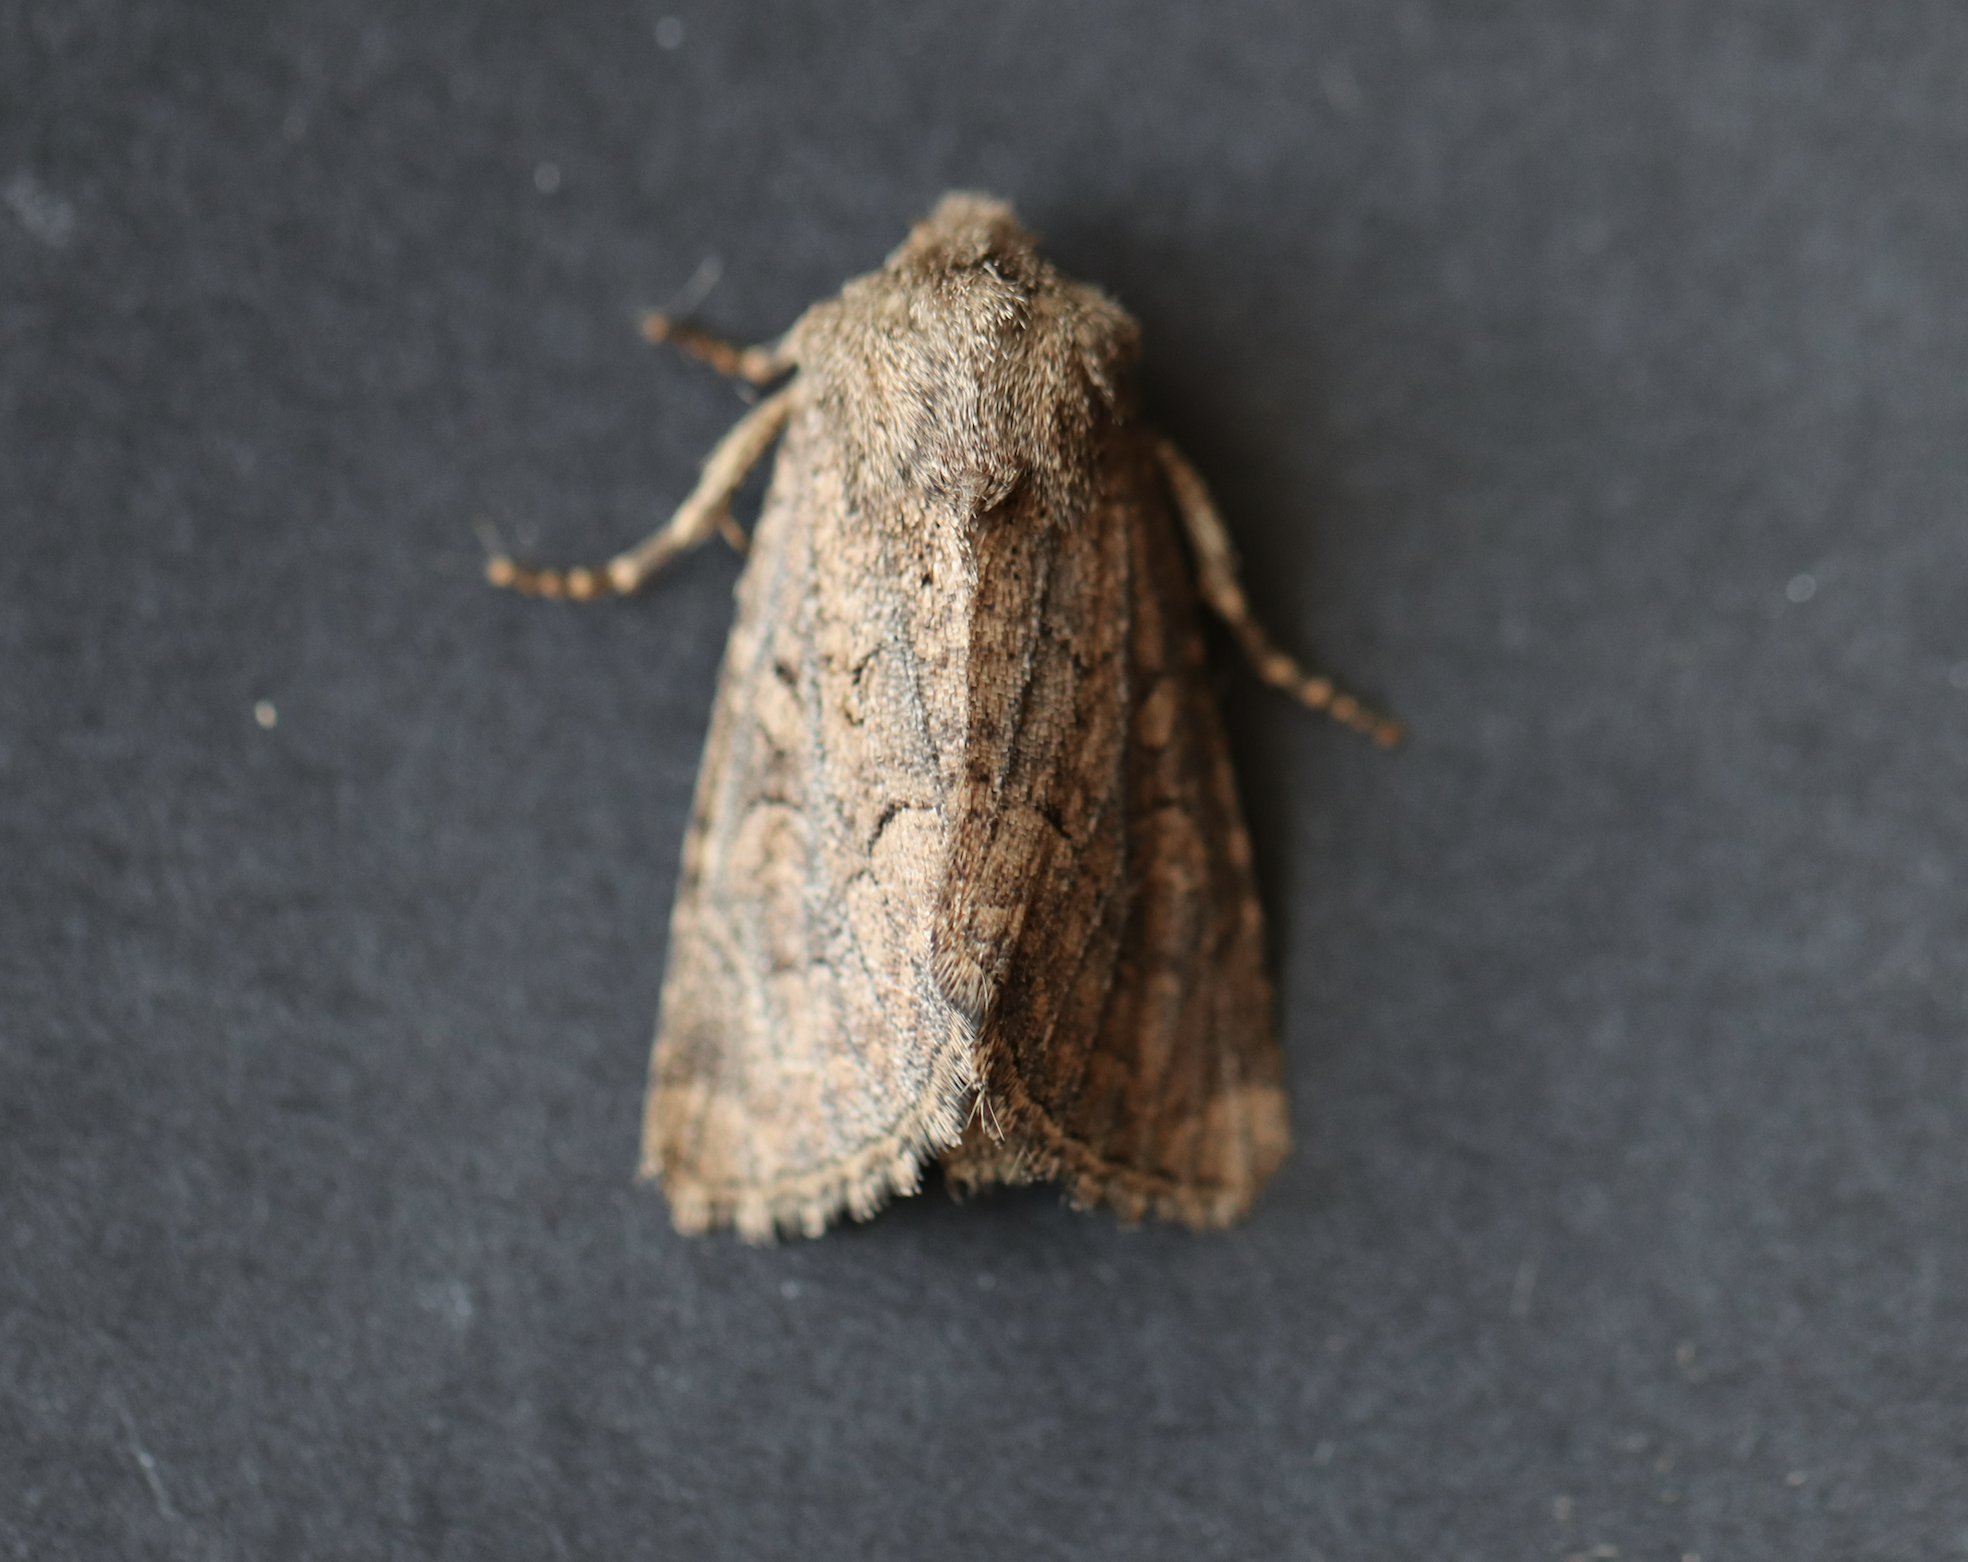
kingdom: Animalia
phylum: Arthropoda
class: Insecta
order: Lepidoptera
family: Noctuidae
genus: Luperina
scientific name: Luperina testacea
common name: Flounced rustic
